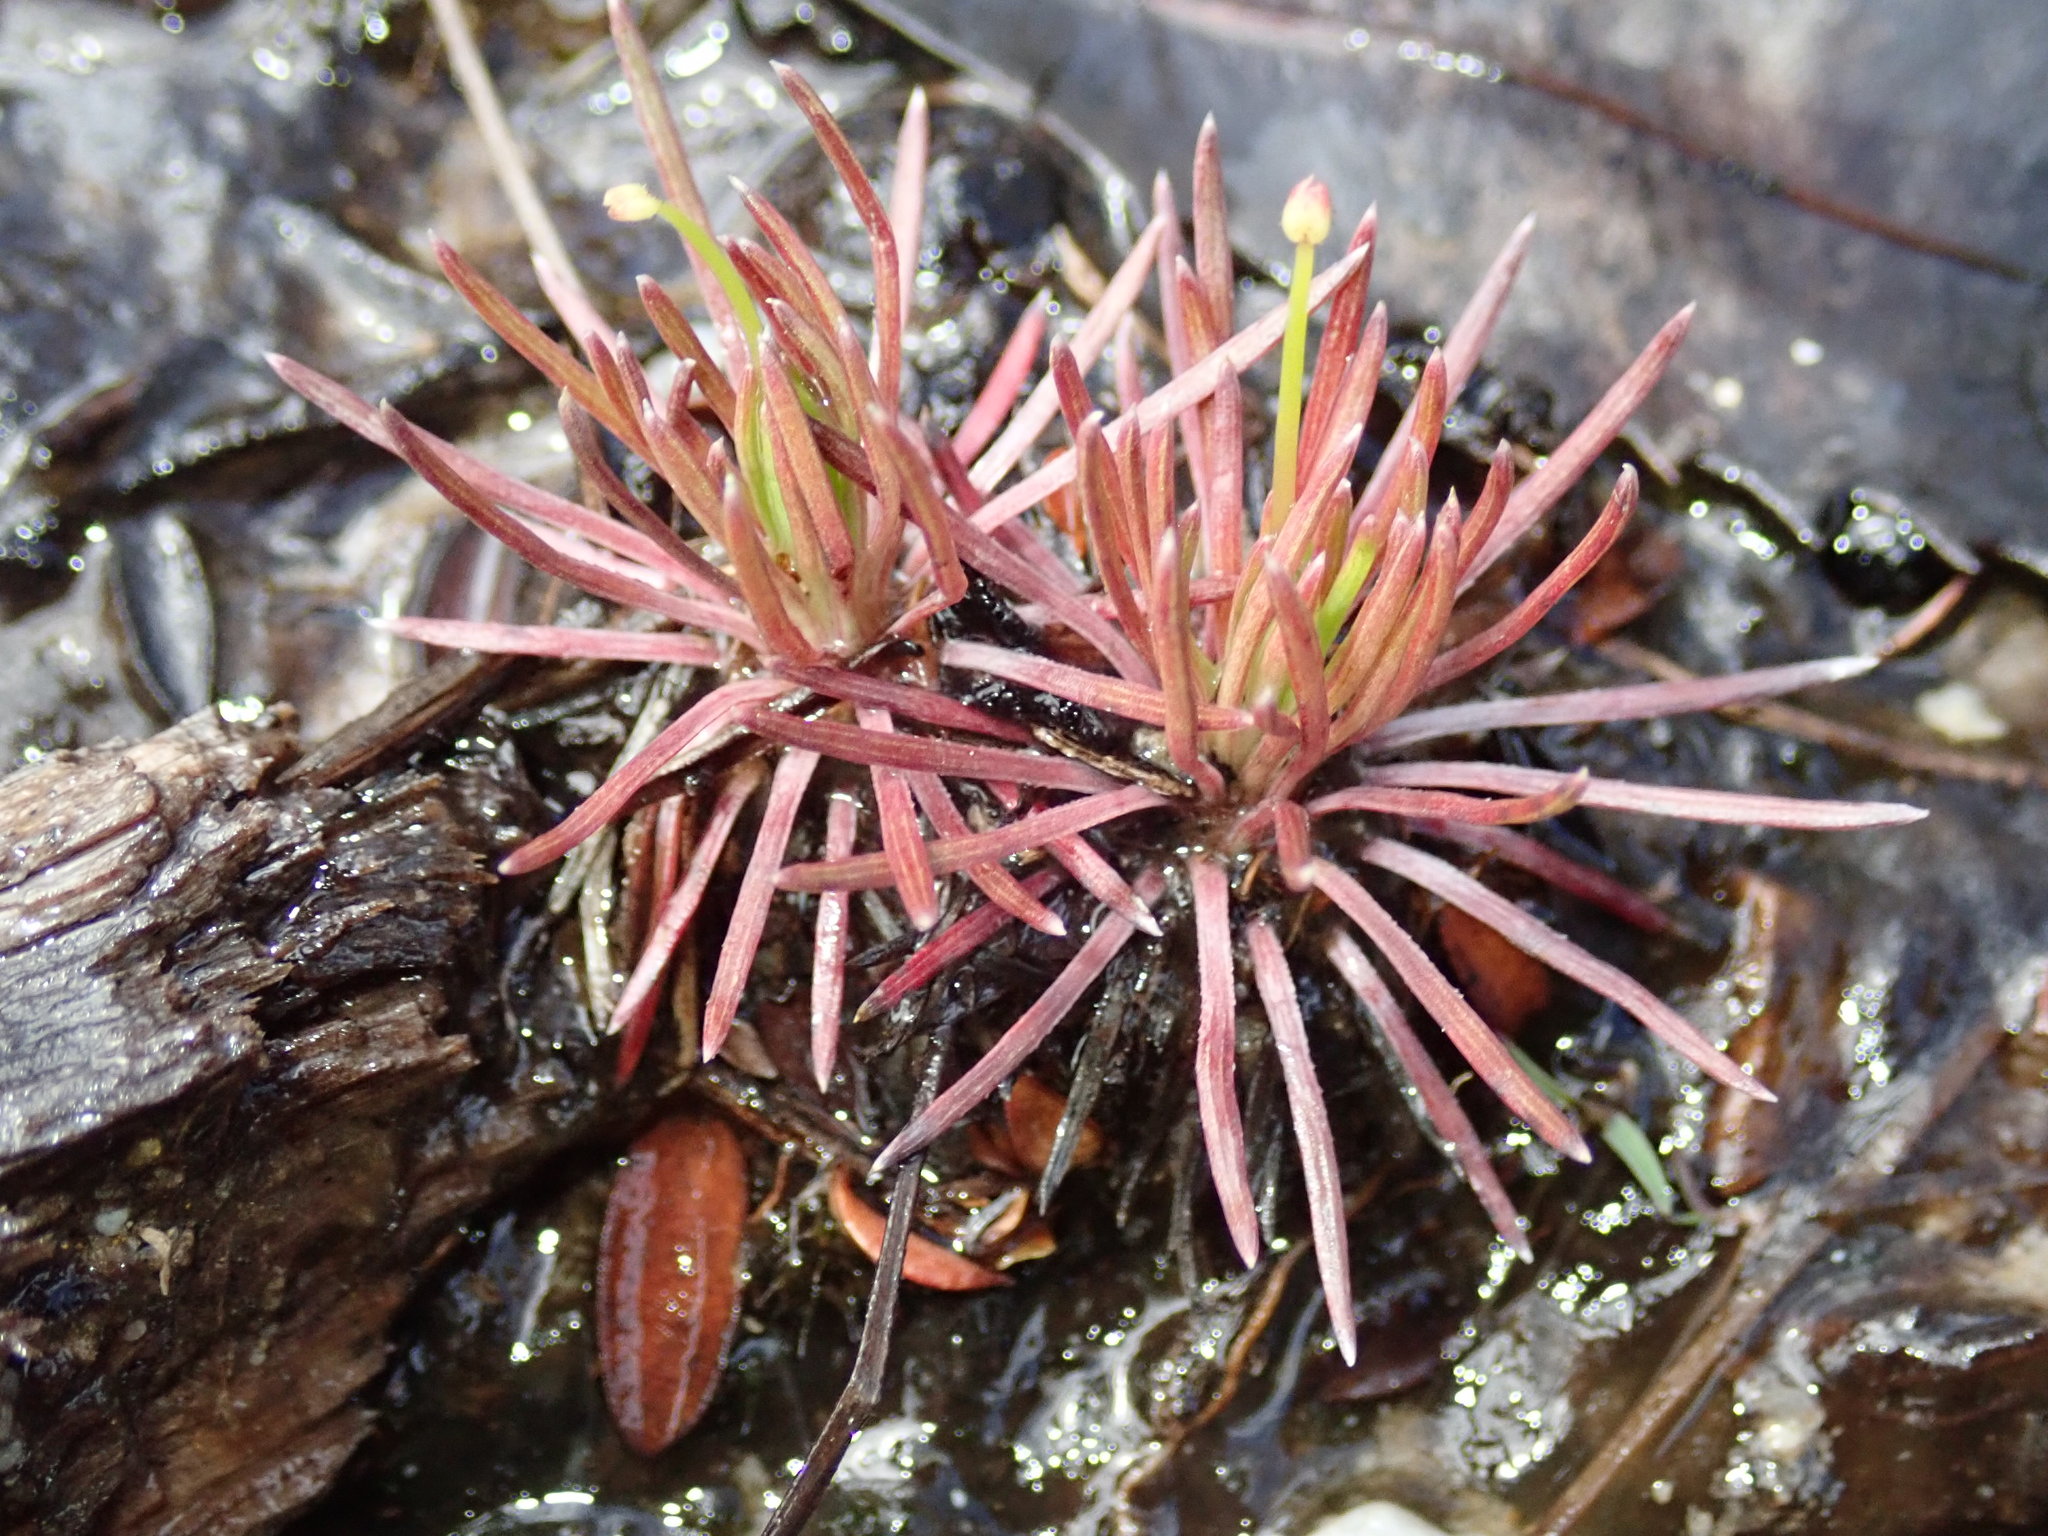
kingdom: Plantae
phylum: Tracheophyta
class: Magnoliopsida
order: Asterales
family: Stylidiaceae
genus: Stylidium
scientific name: Stylidium lineare
